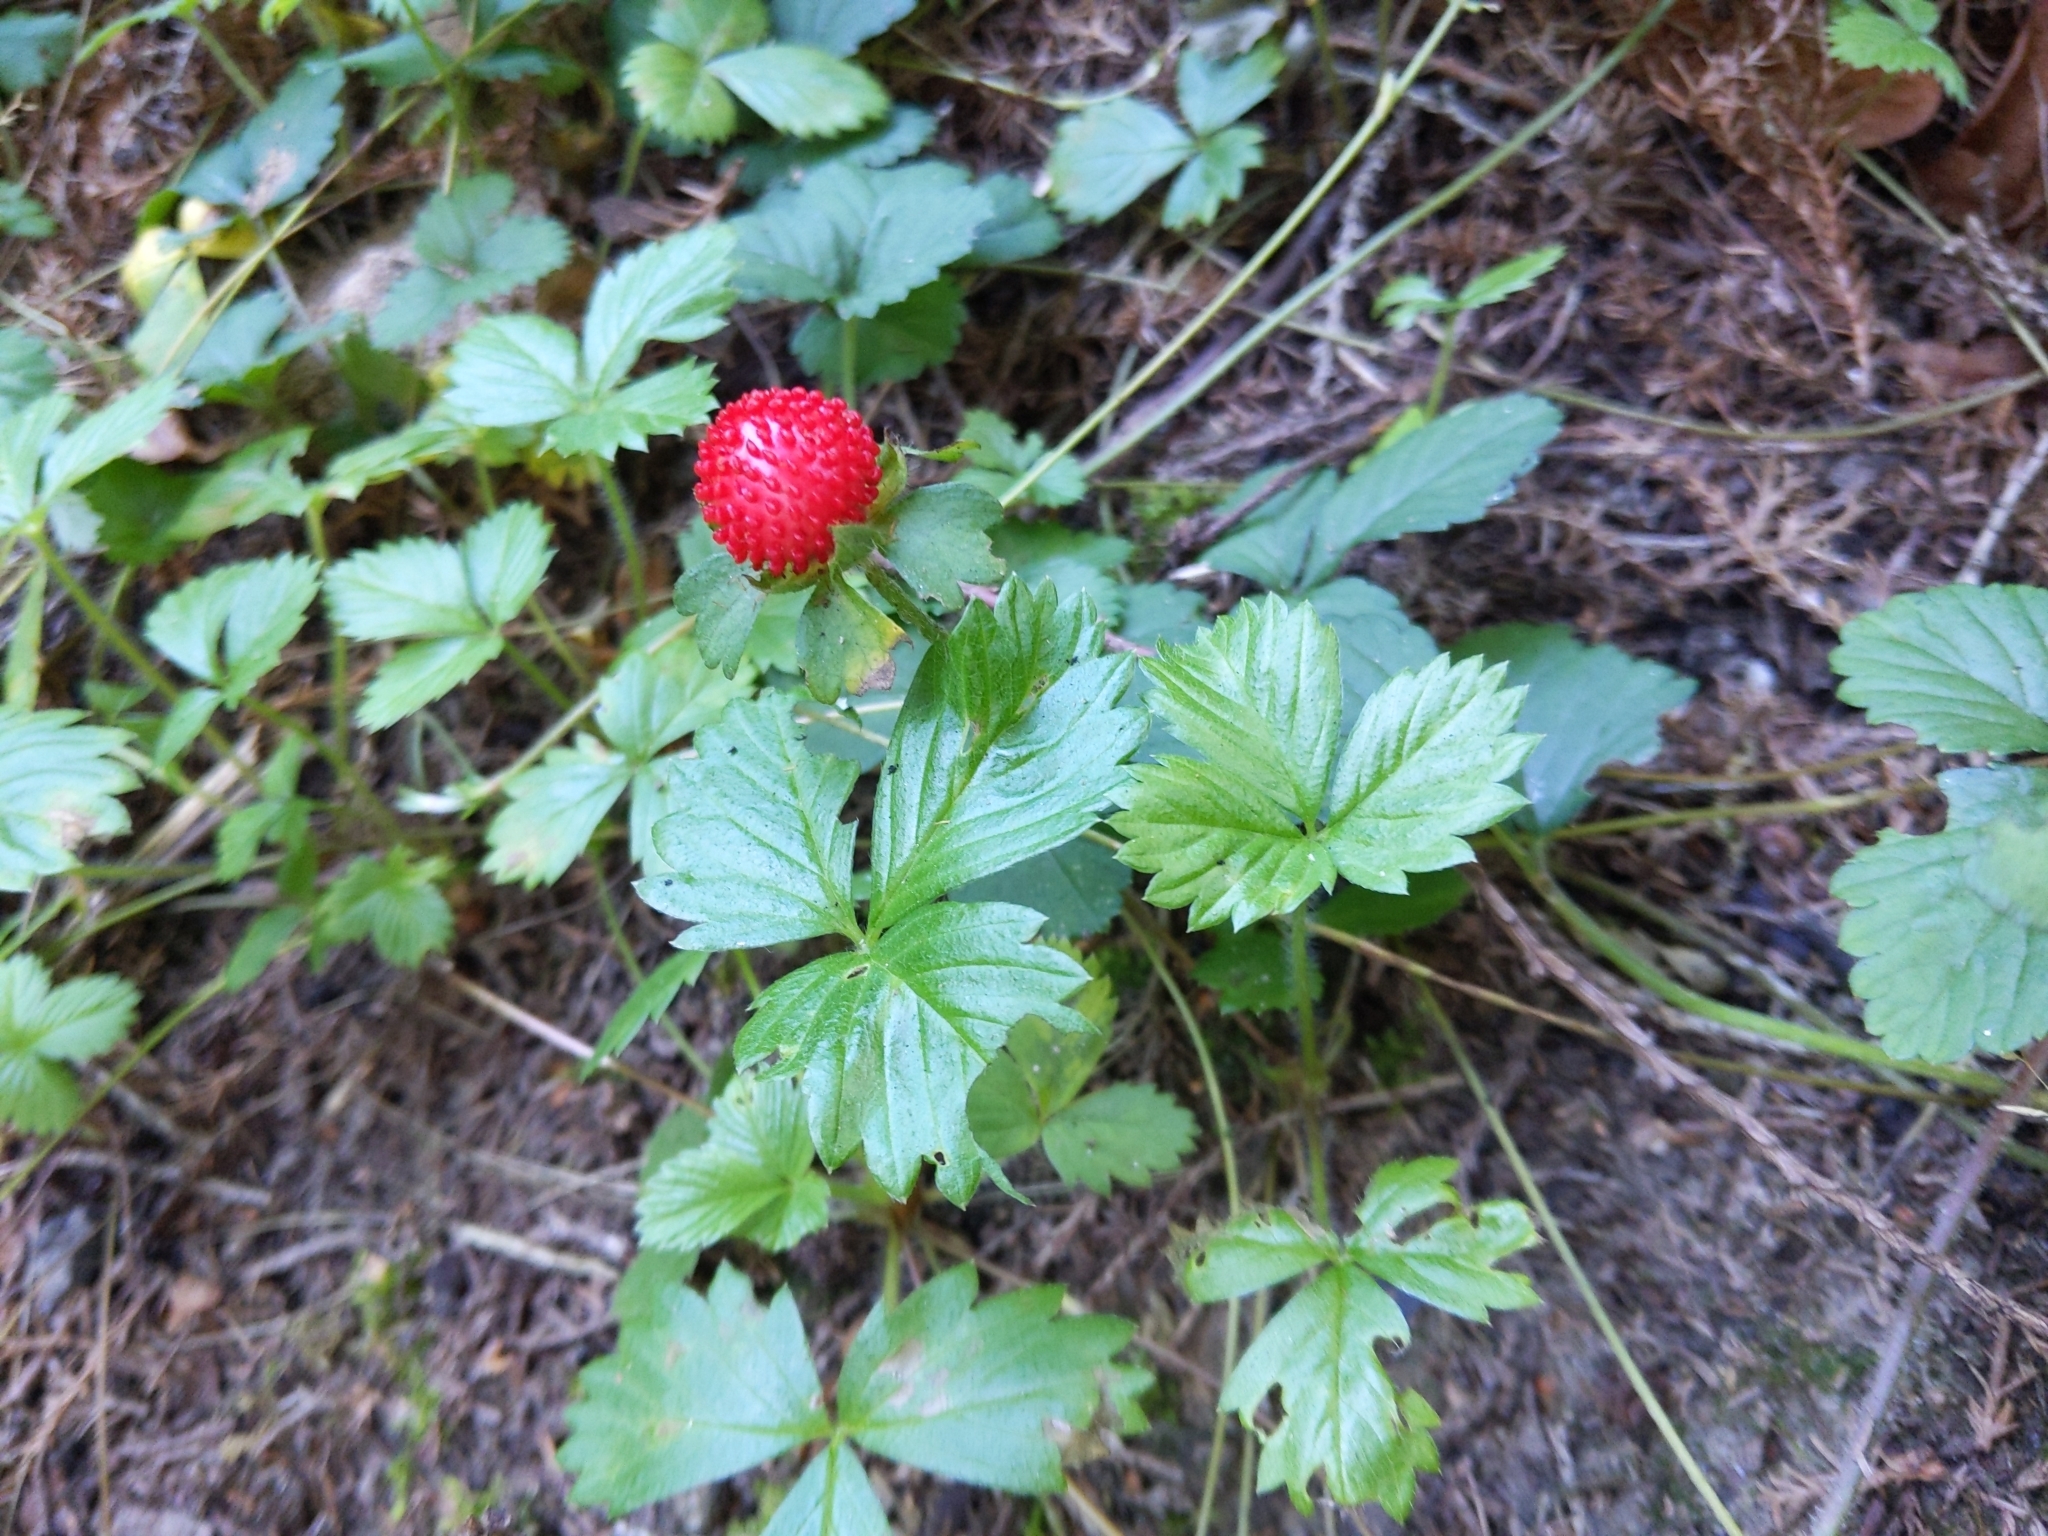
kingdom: Plantae
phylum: Tracheophyta
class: Magnoliopsida
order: Rosales
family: Rosaceae
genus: Potentilla
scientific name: Potentilla indica
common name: Yellow-flowered strawberry
